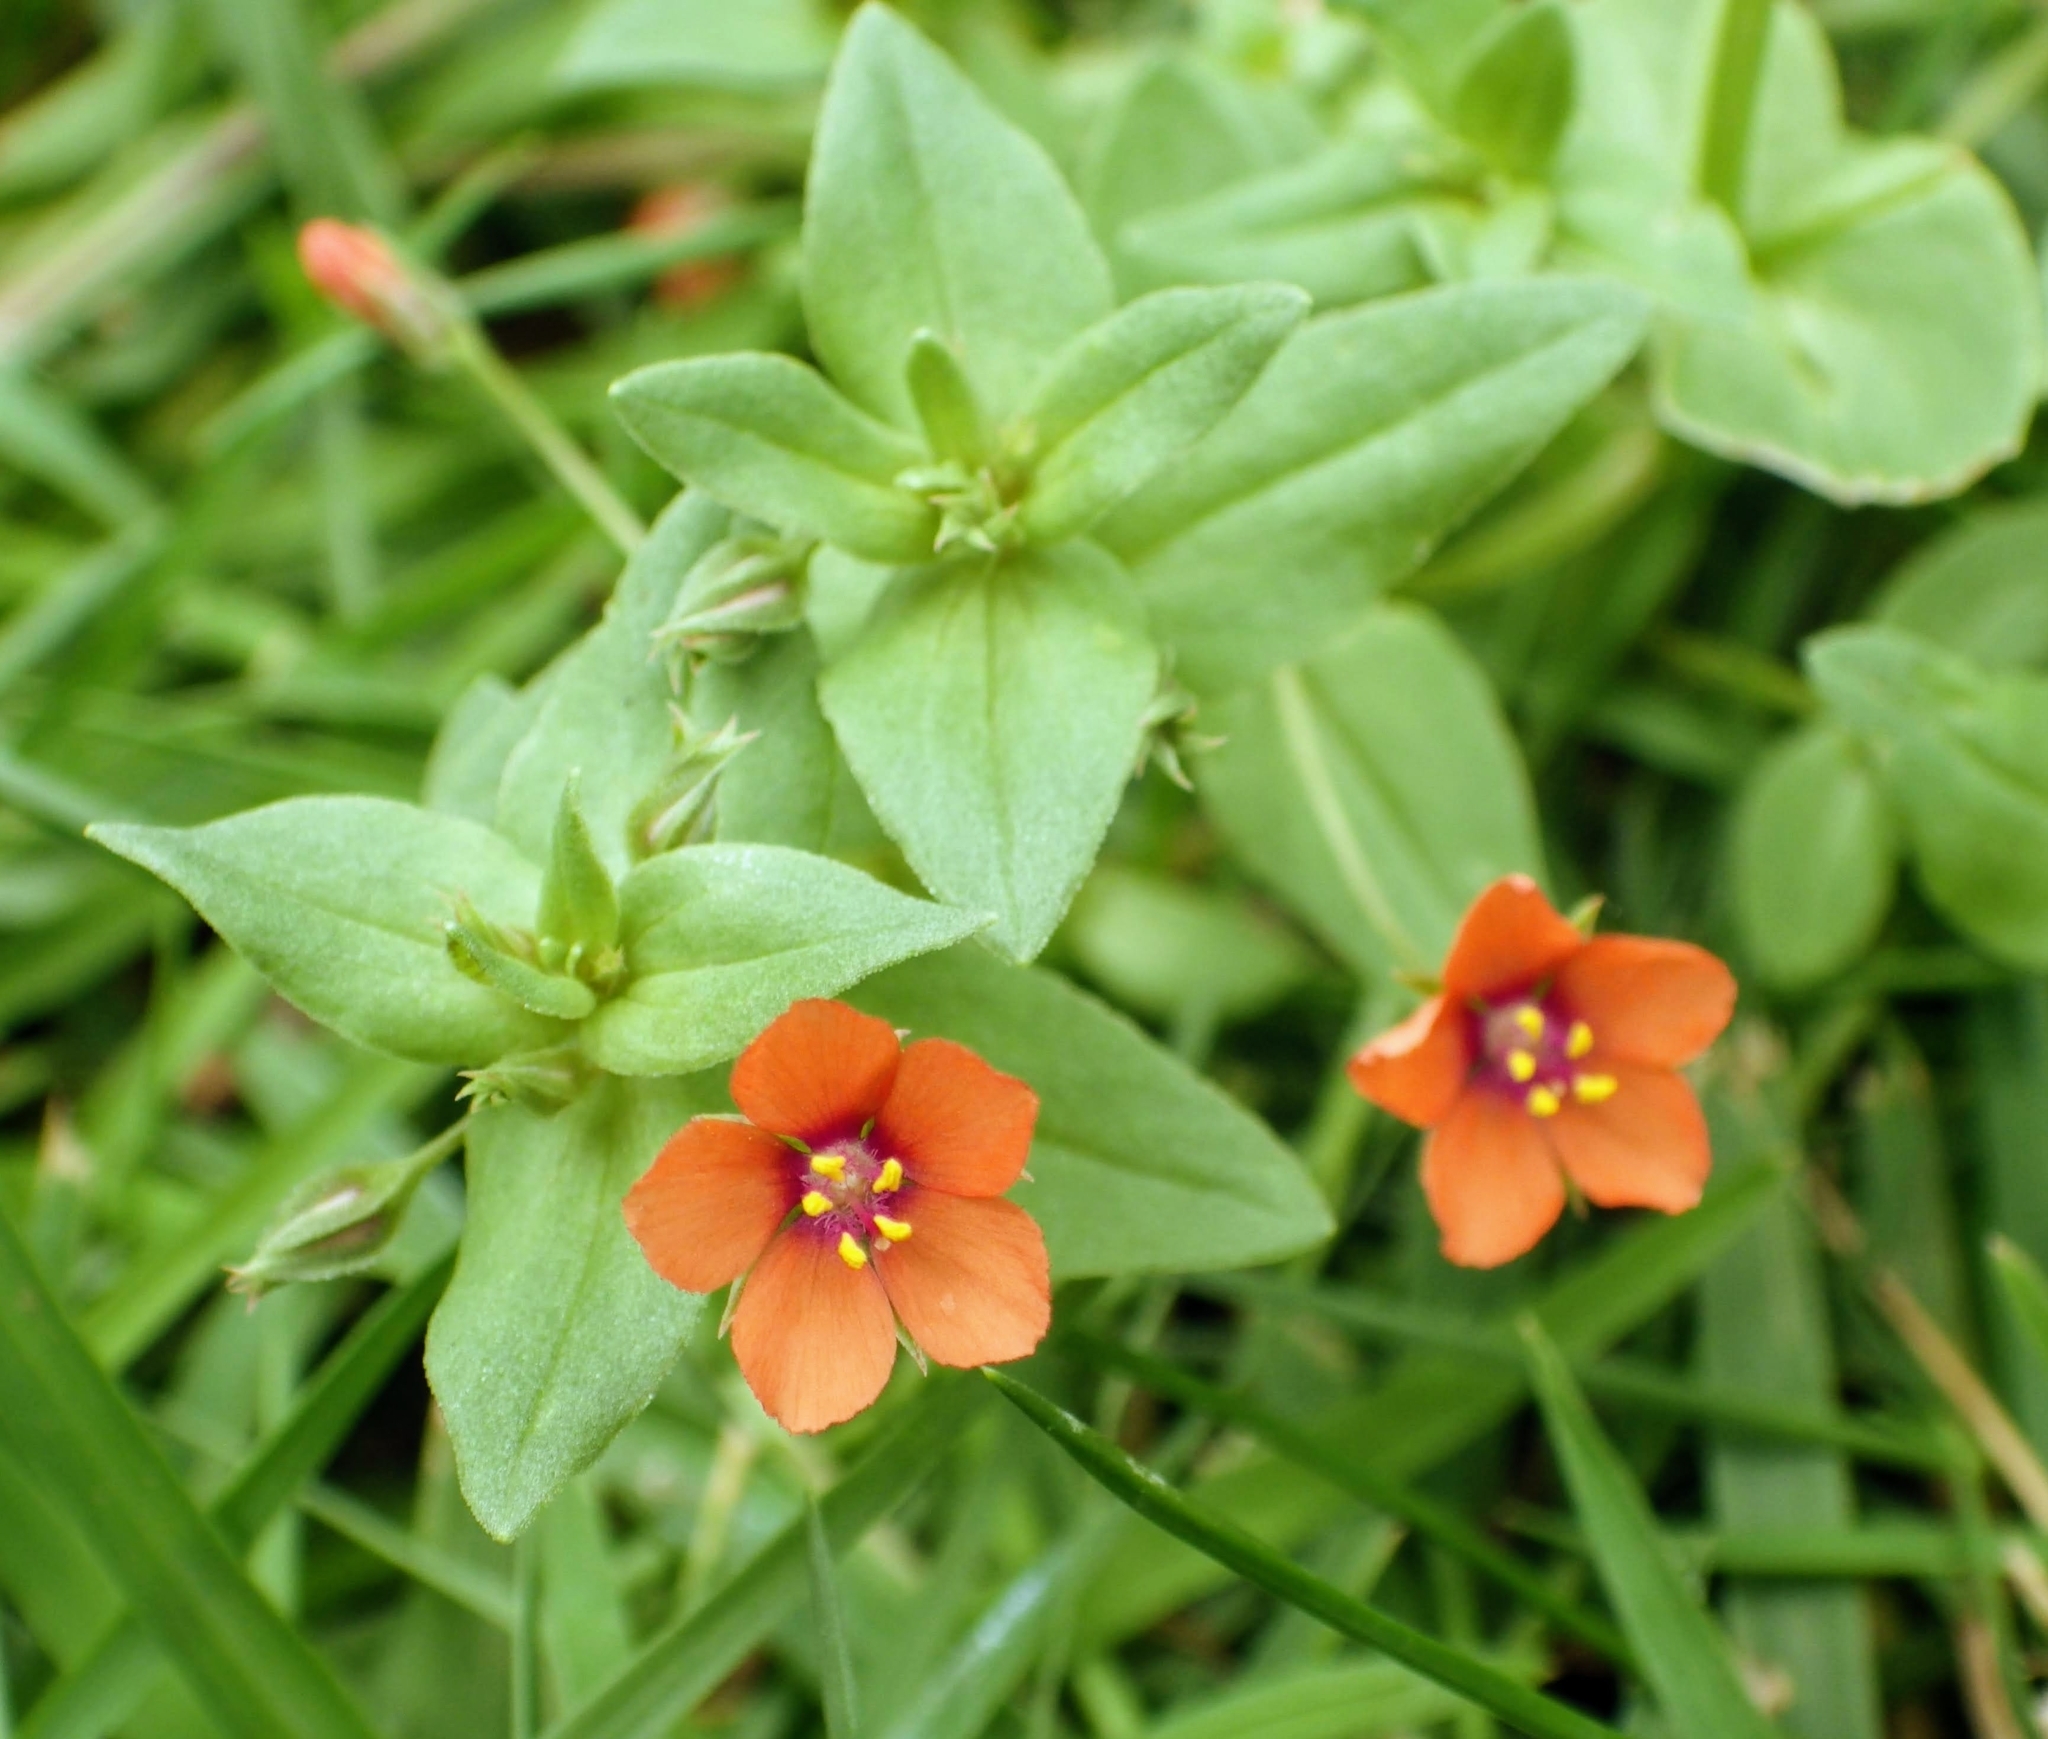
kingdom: Plantae
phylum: Tracheophyta
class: Magnoliopsida
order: Ericales
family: Primulaceae
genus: Lysimachia
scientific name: Lysimachia arvensis
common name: Scarlet pimpernel
